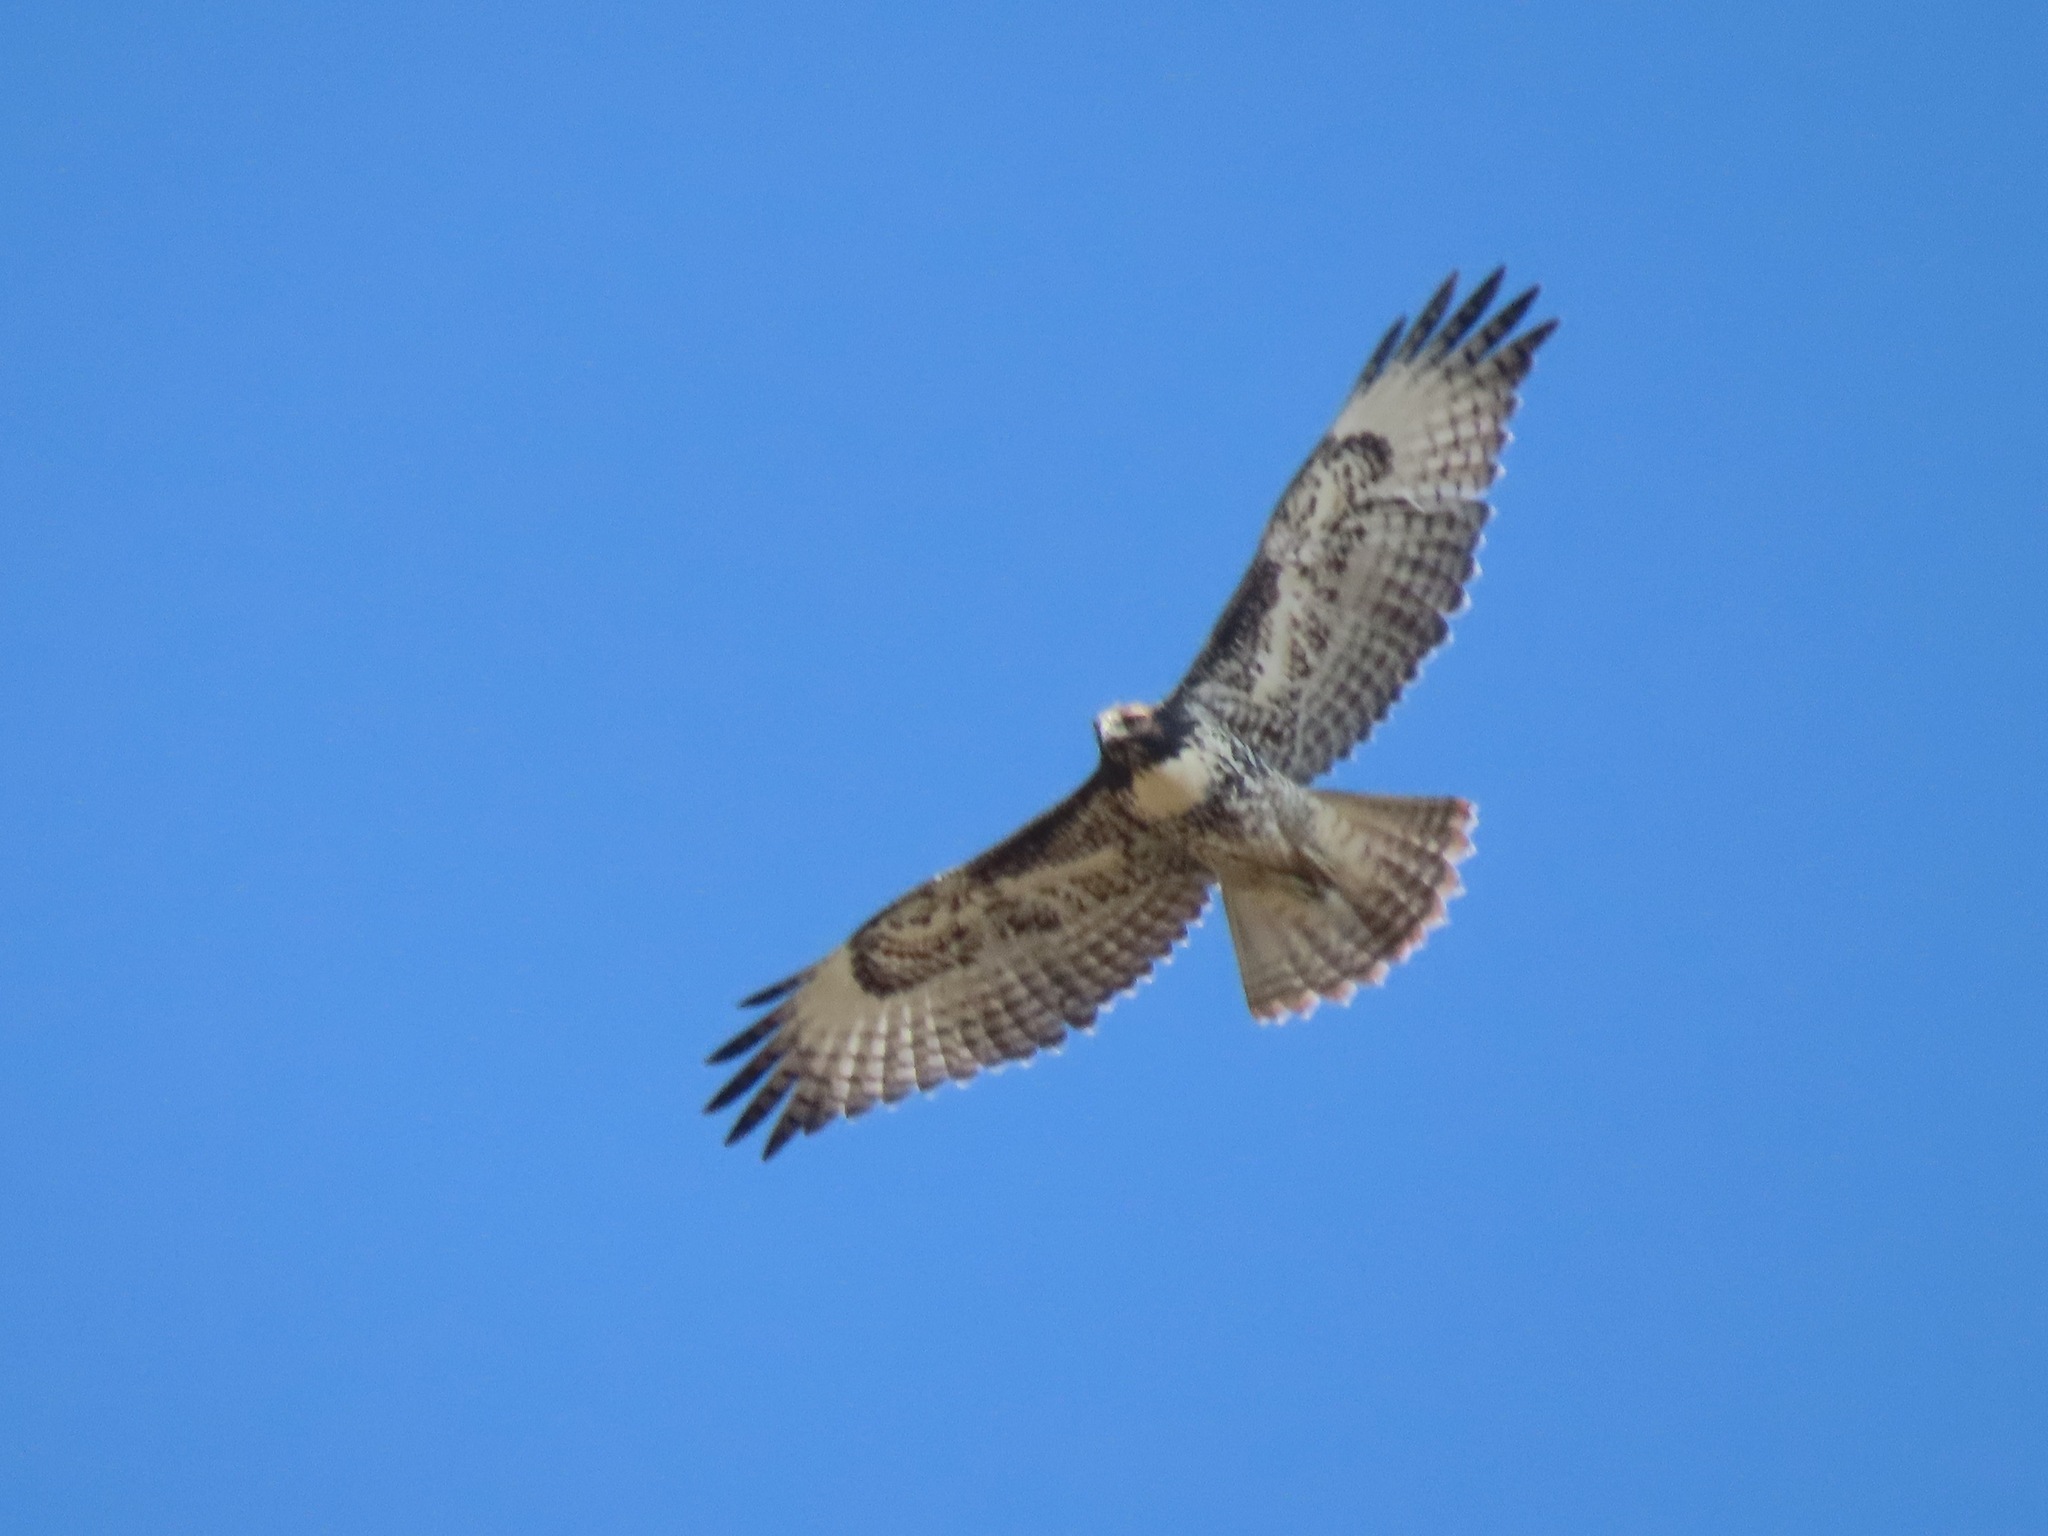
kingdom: Animalia
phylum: Chordata
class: Aves
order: Accipitriformes
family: Accipitridae
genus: Buteo
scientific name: Buteo jamaicensis
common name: Red-tailed hawk
